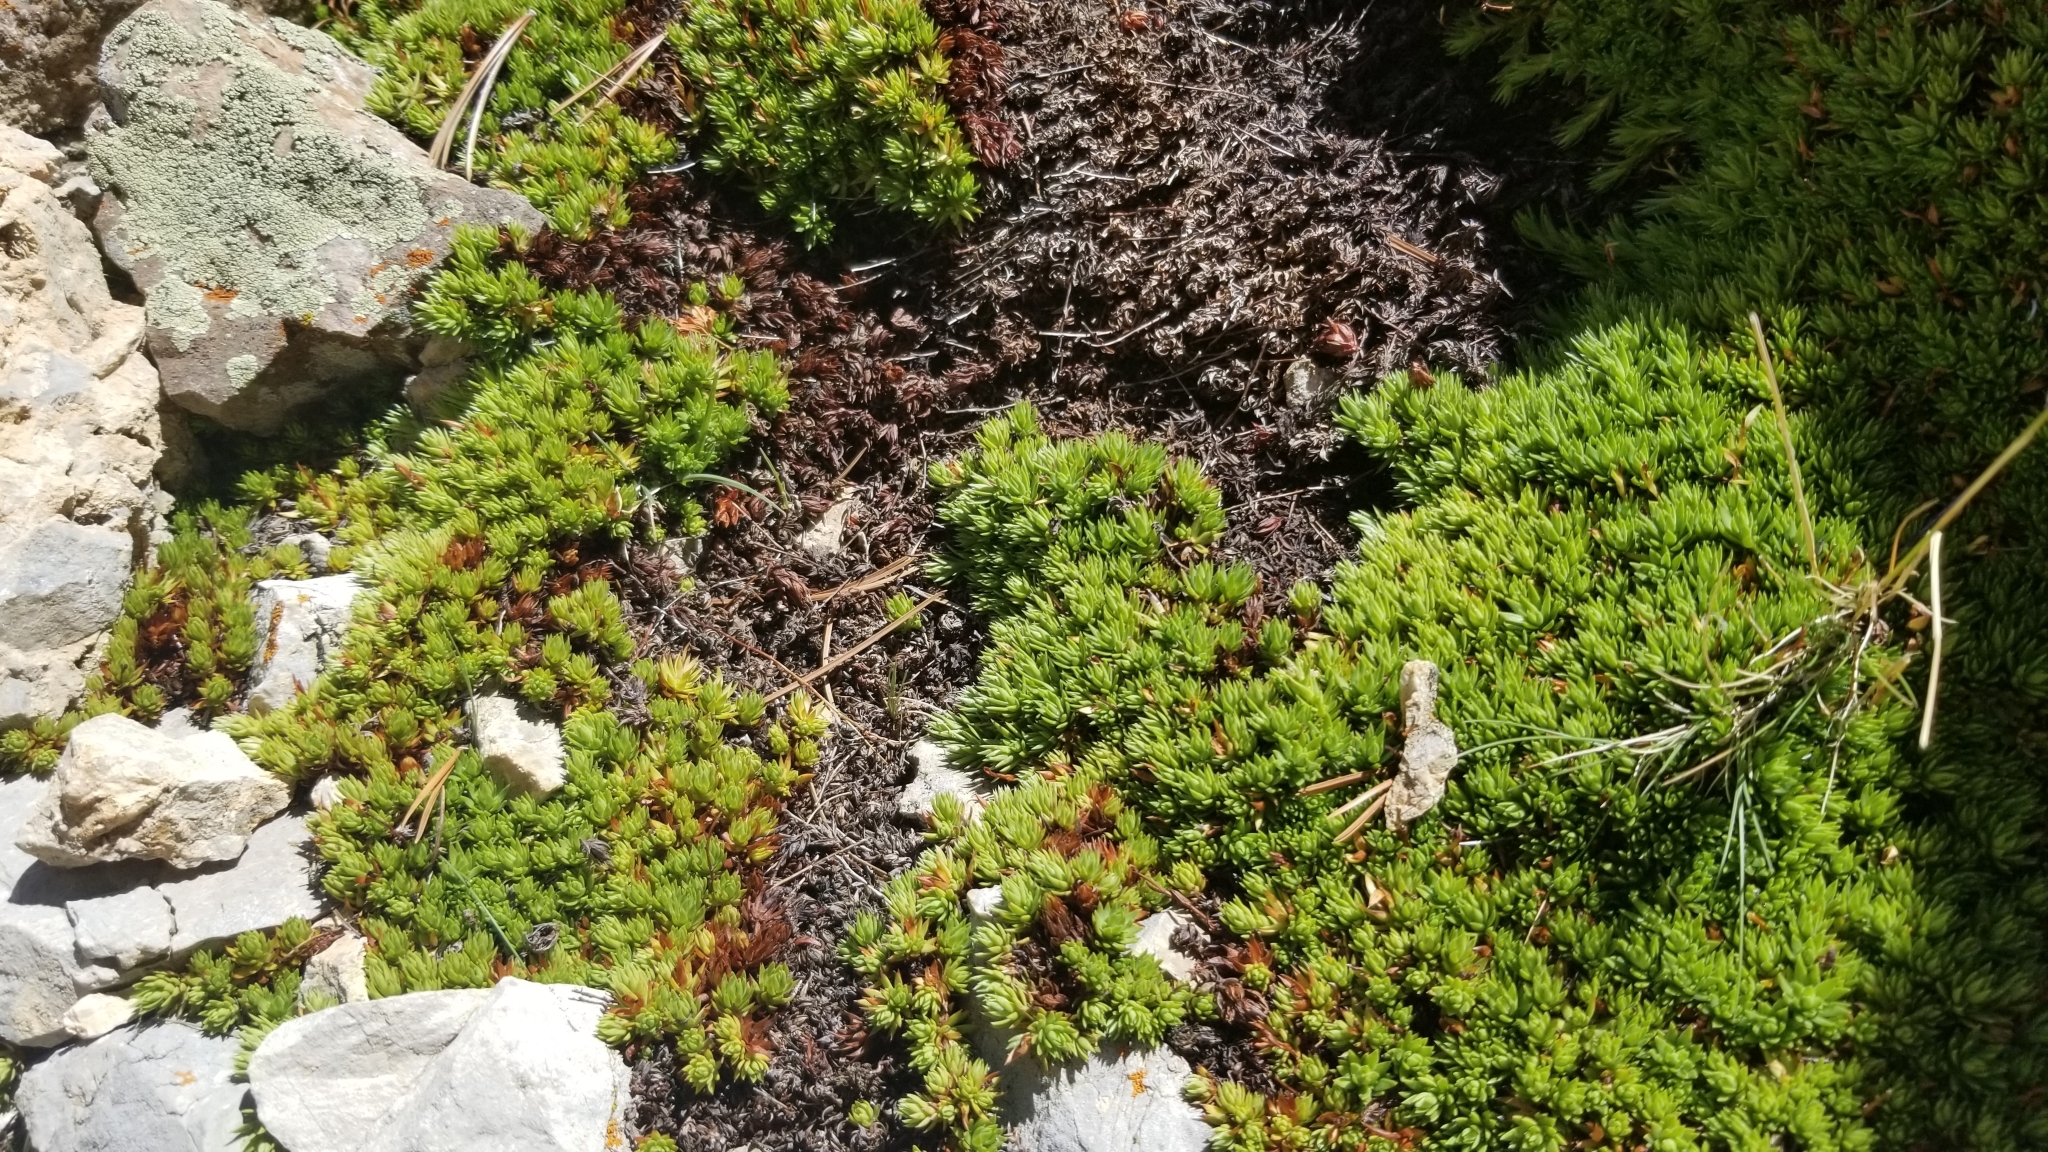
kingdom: Plantae
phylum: Tracheophyta
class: Magnoliopsida
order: Saxifragales
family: Saxifragaceae
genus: Saxifraga
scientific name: Saxifraga bronchialis
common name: Matted saxifrage
